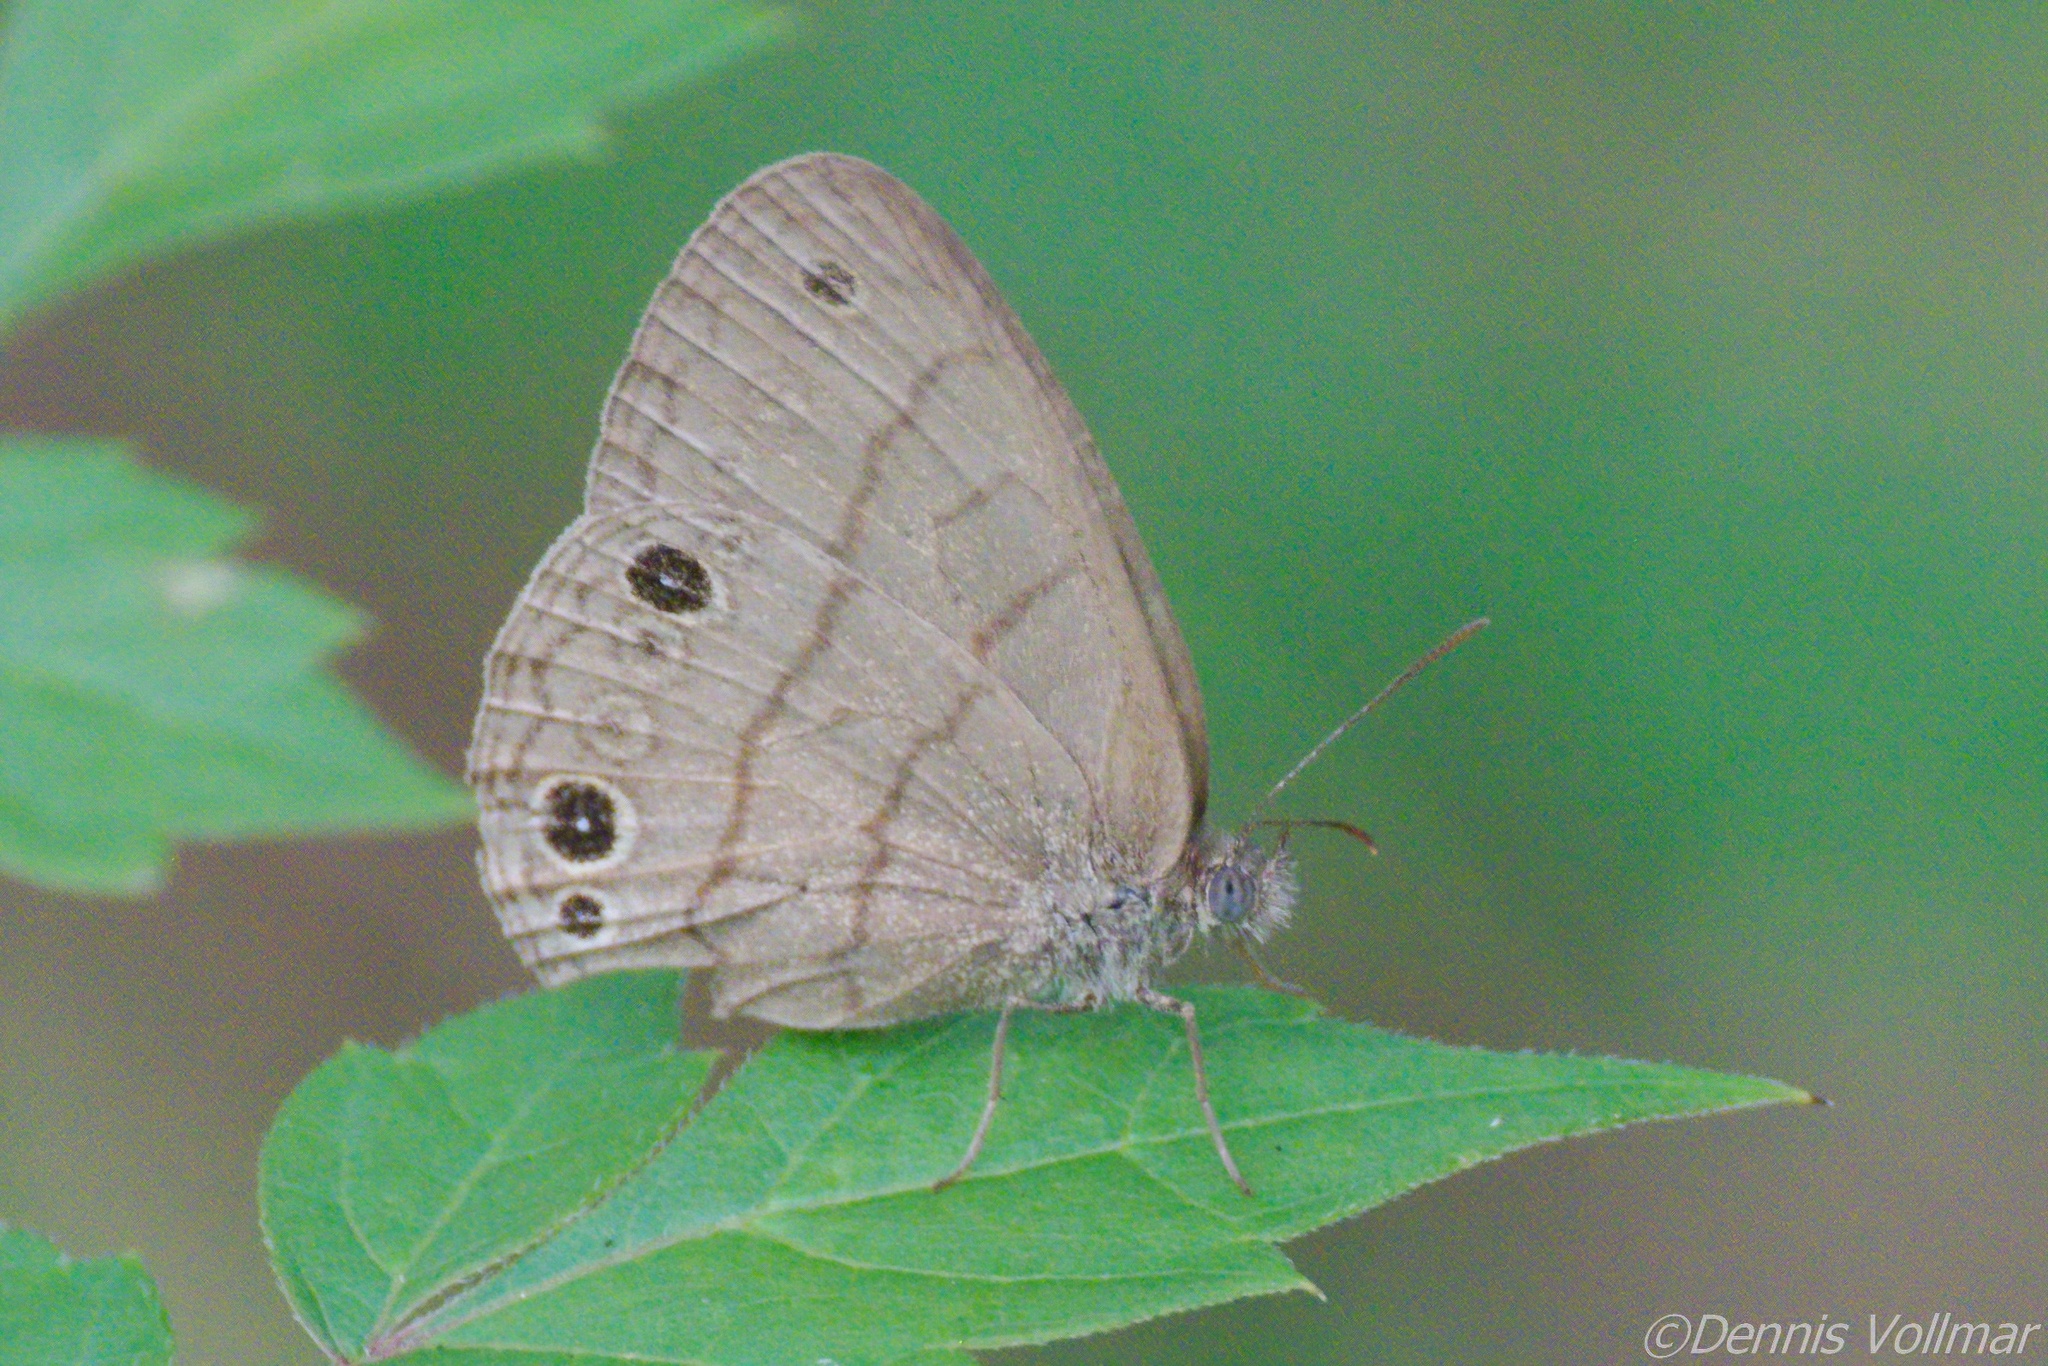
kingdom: Animalia
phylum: Arthropoda
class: Insecta
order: Lepidoptera
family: Nymphalidae
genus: Hermeuptychia
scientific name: Hermeuptychia intricata
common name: Intricate satyr
